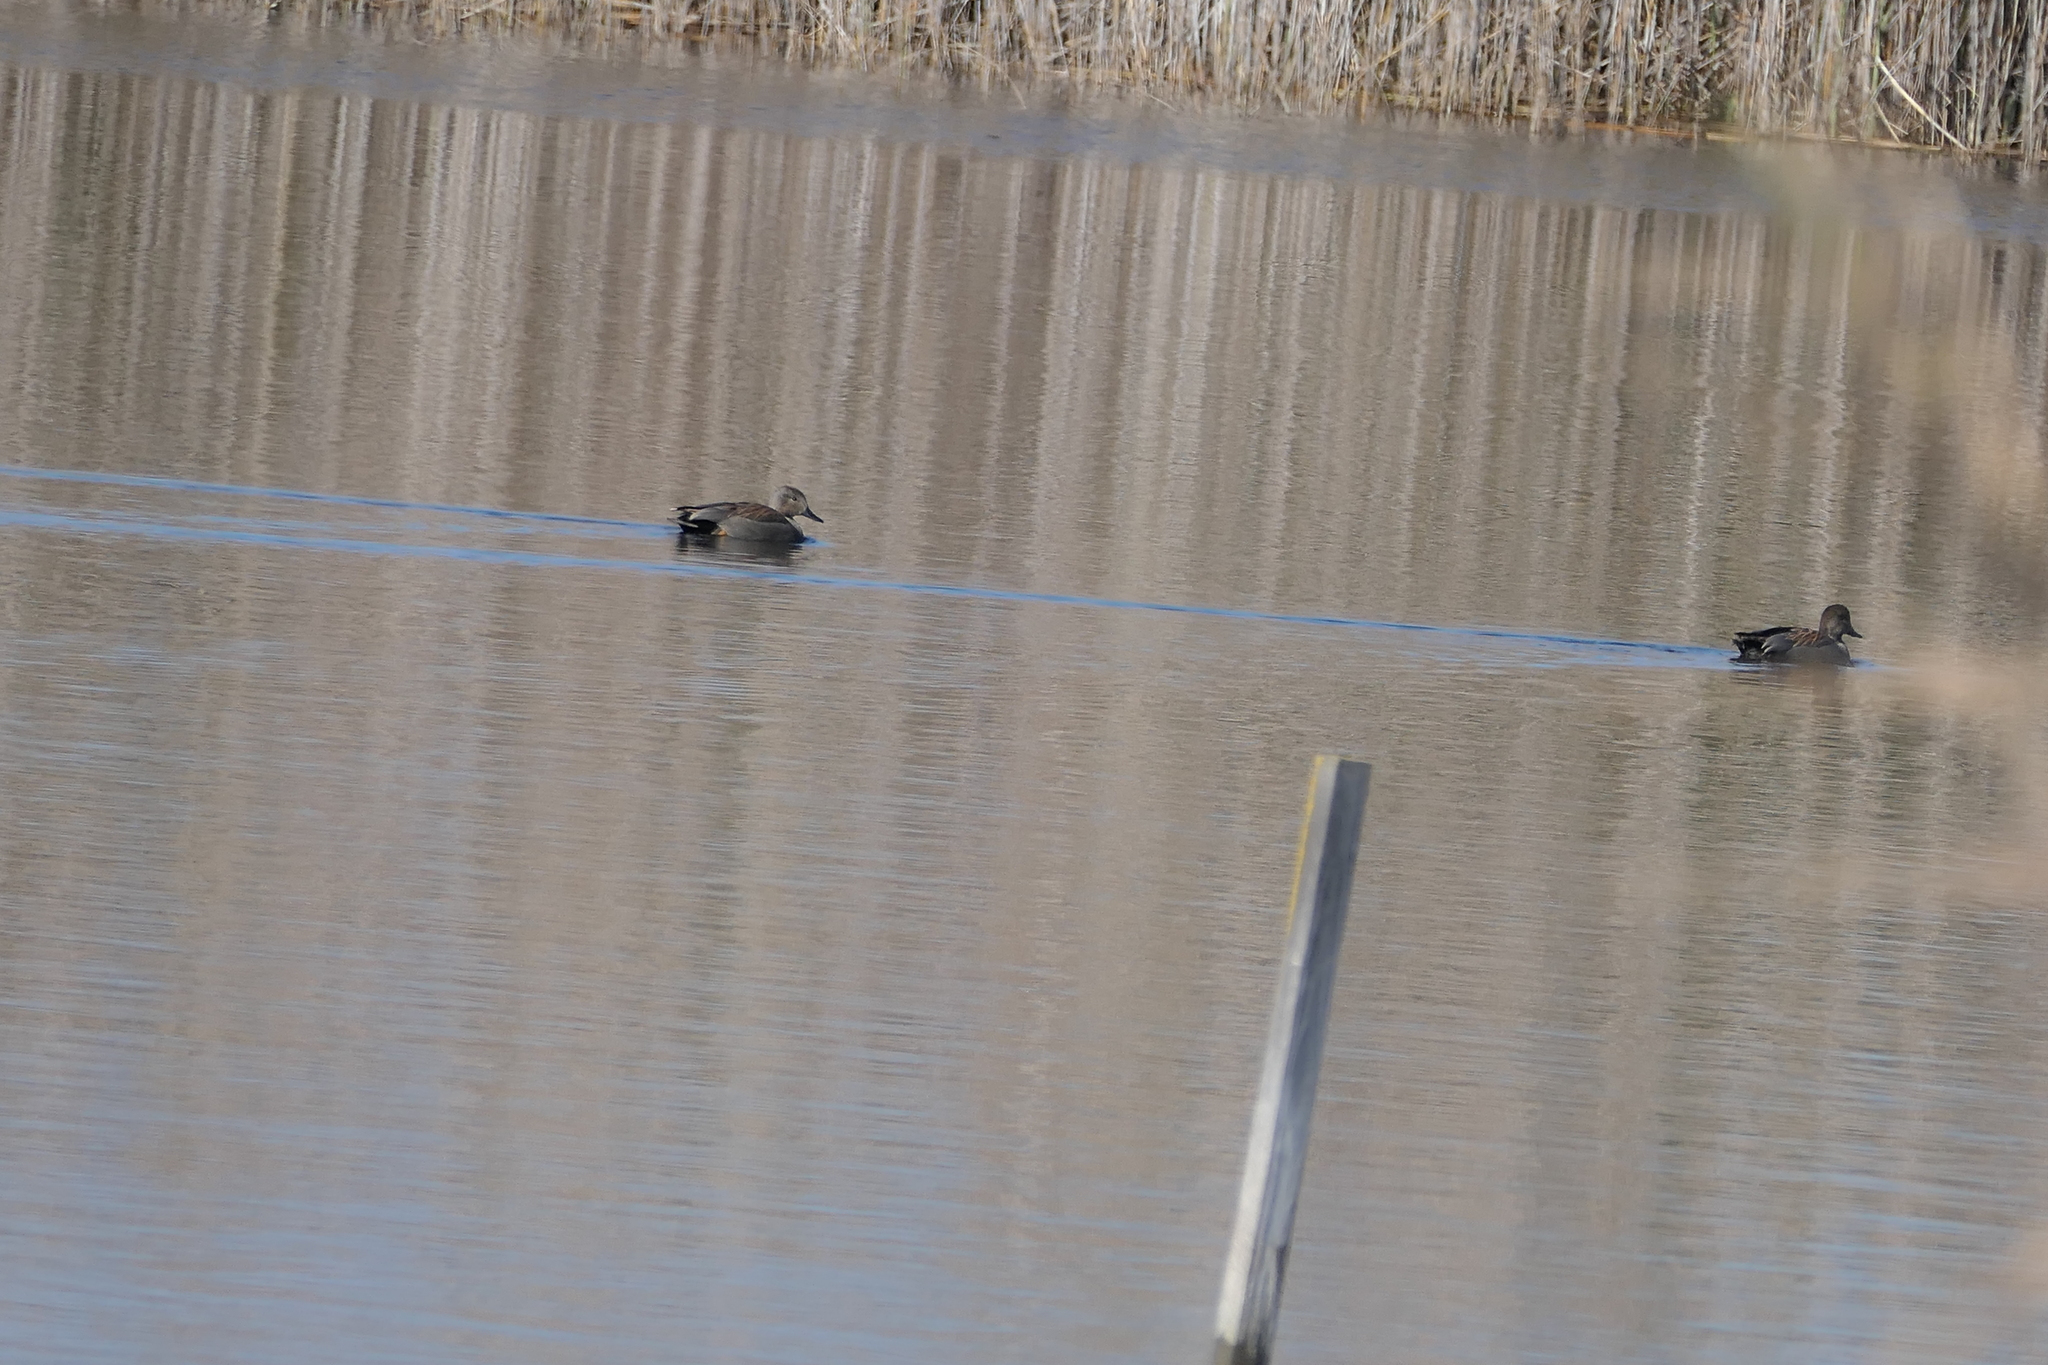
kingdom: Animalia
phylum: Chordata
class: Aves
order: Anseriformes
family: Anatidae
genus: Mareca
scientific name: Mareca strepera
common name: Gadwall
